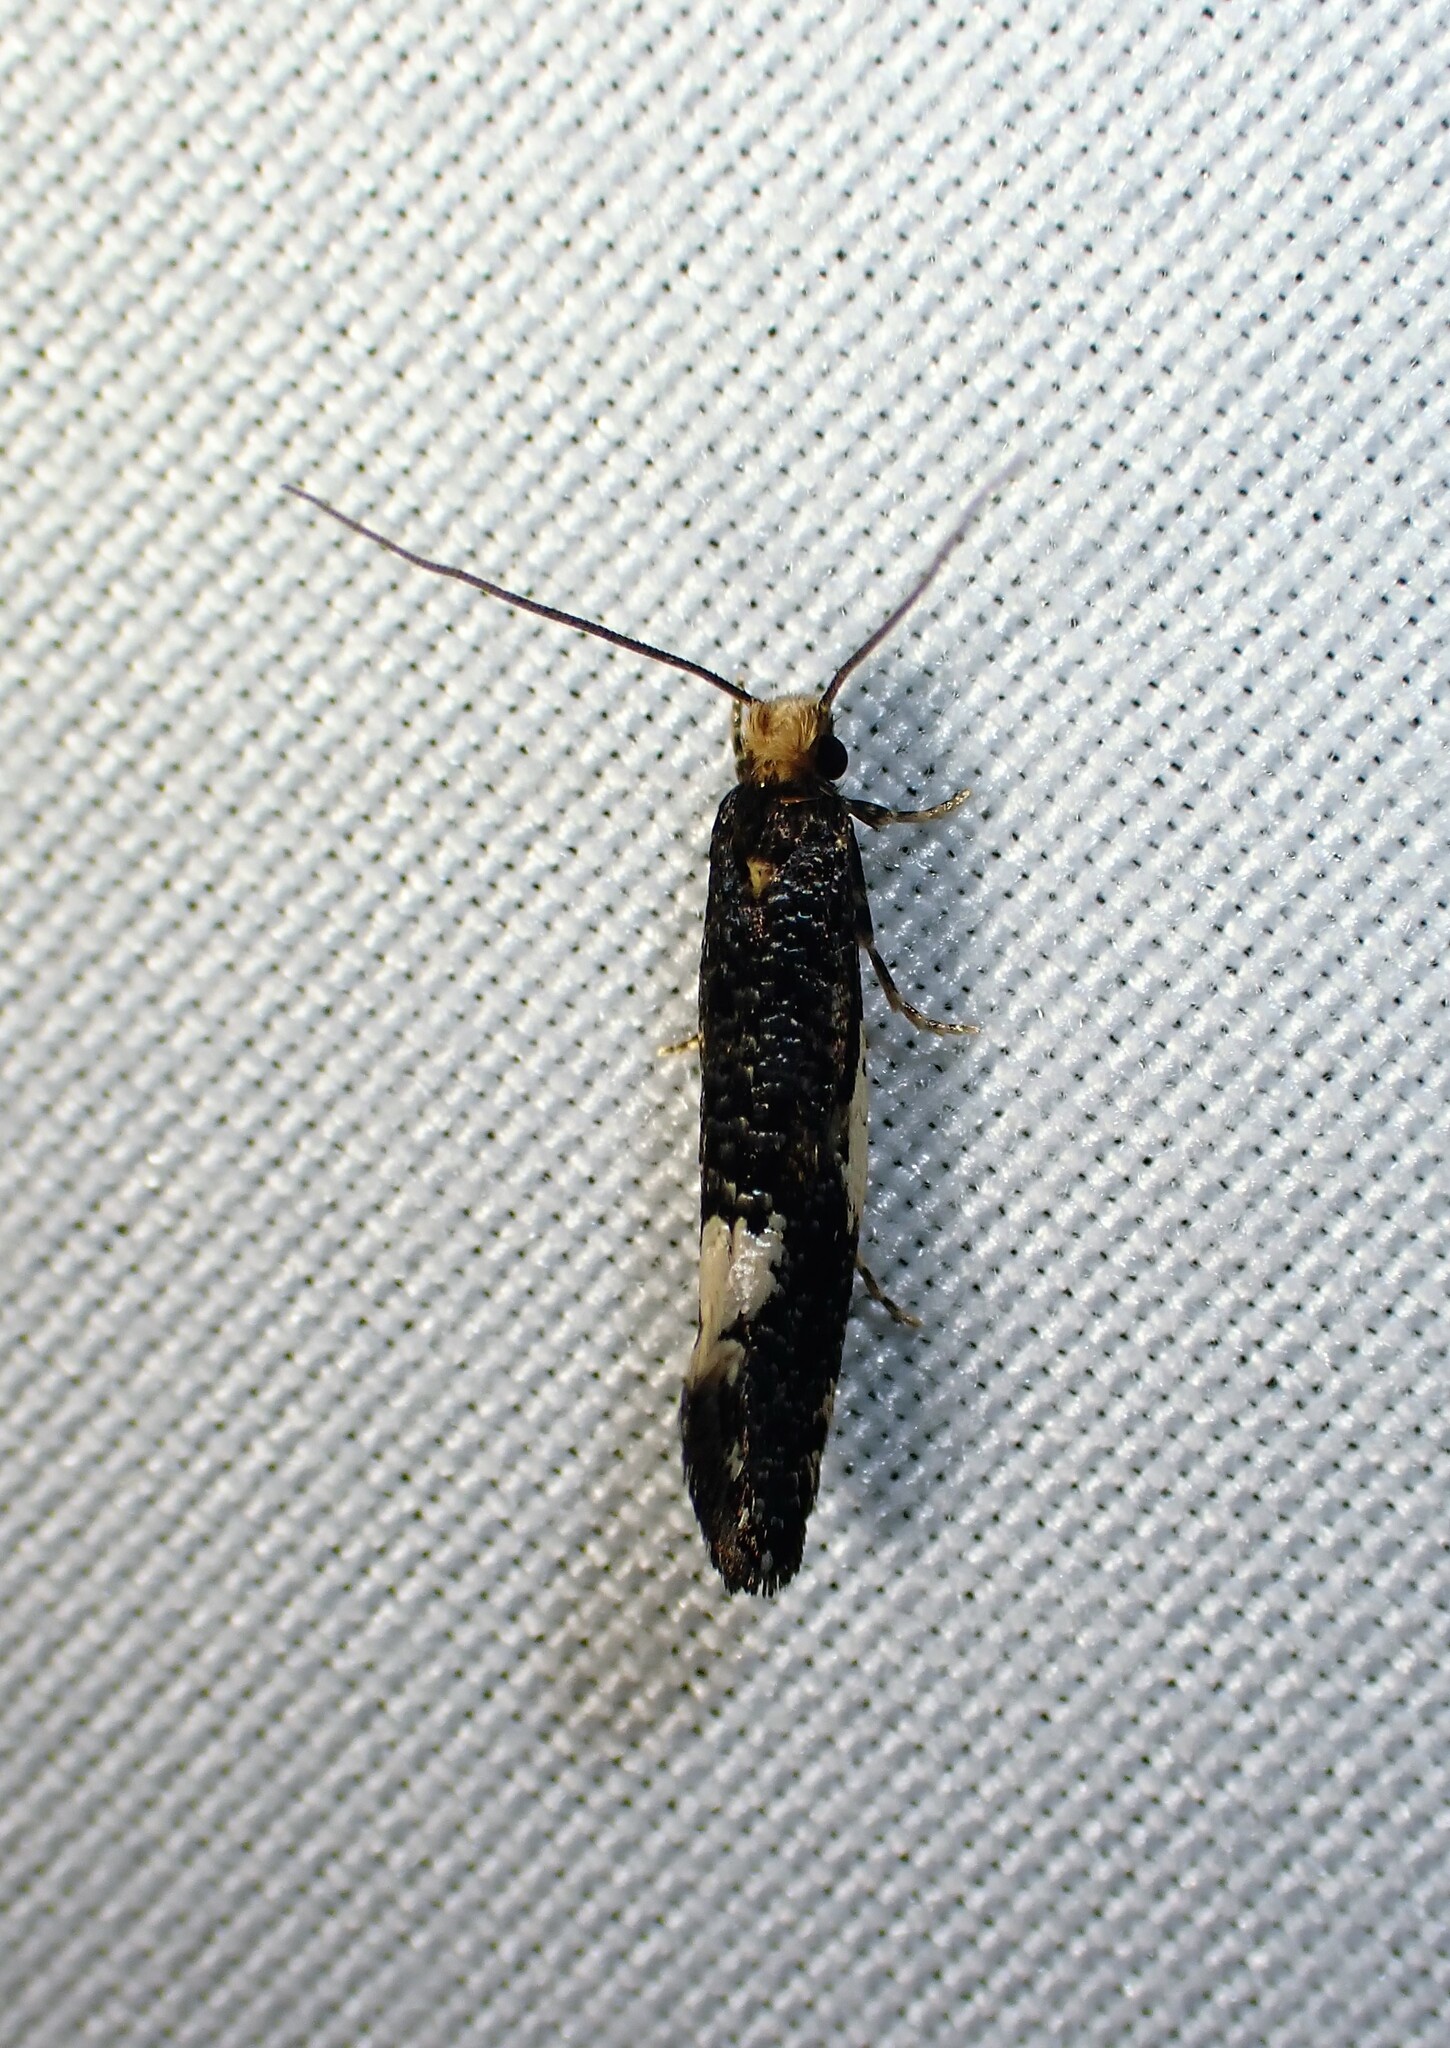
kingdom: Animalia
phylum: Arthropoda
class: Insecta
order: Lepidoptera
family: Tineidae
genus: Monopis
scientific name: Monopis spilotella
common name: Orange-headed monopis
